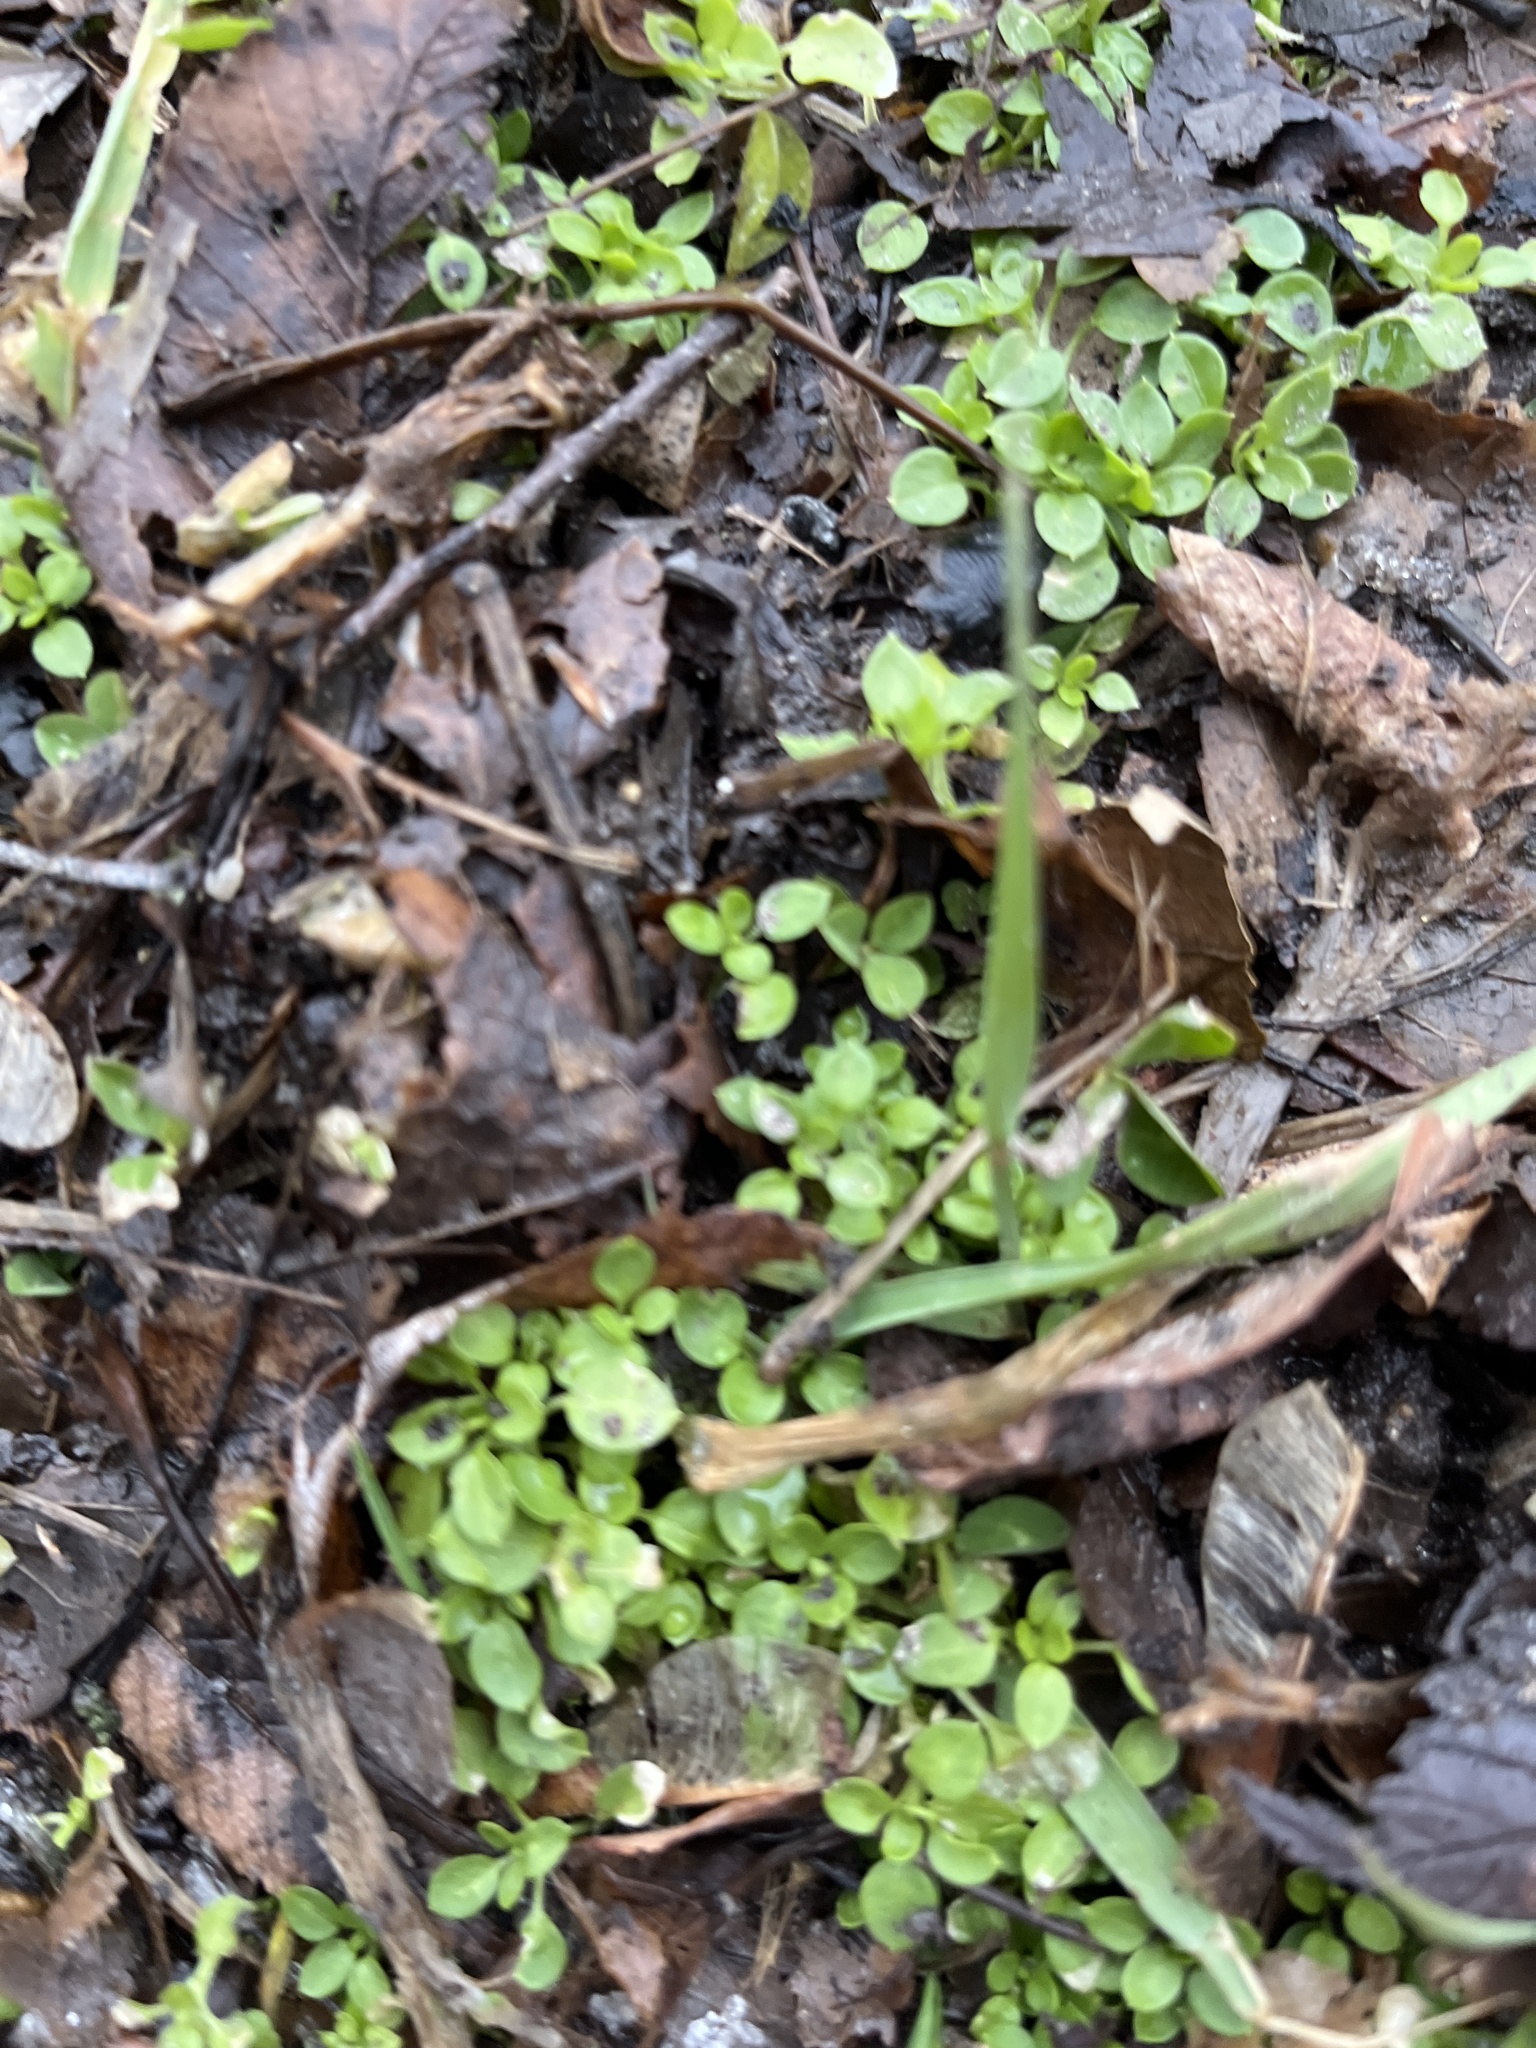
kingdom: Plantae
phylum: Tracheophyta
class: Magnoliopsida
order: Caryophyllales
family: Caryophyllaceae
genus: Stellaria
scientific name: Stellaria media
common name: Common chickweed
